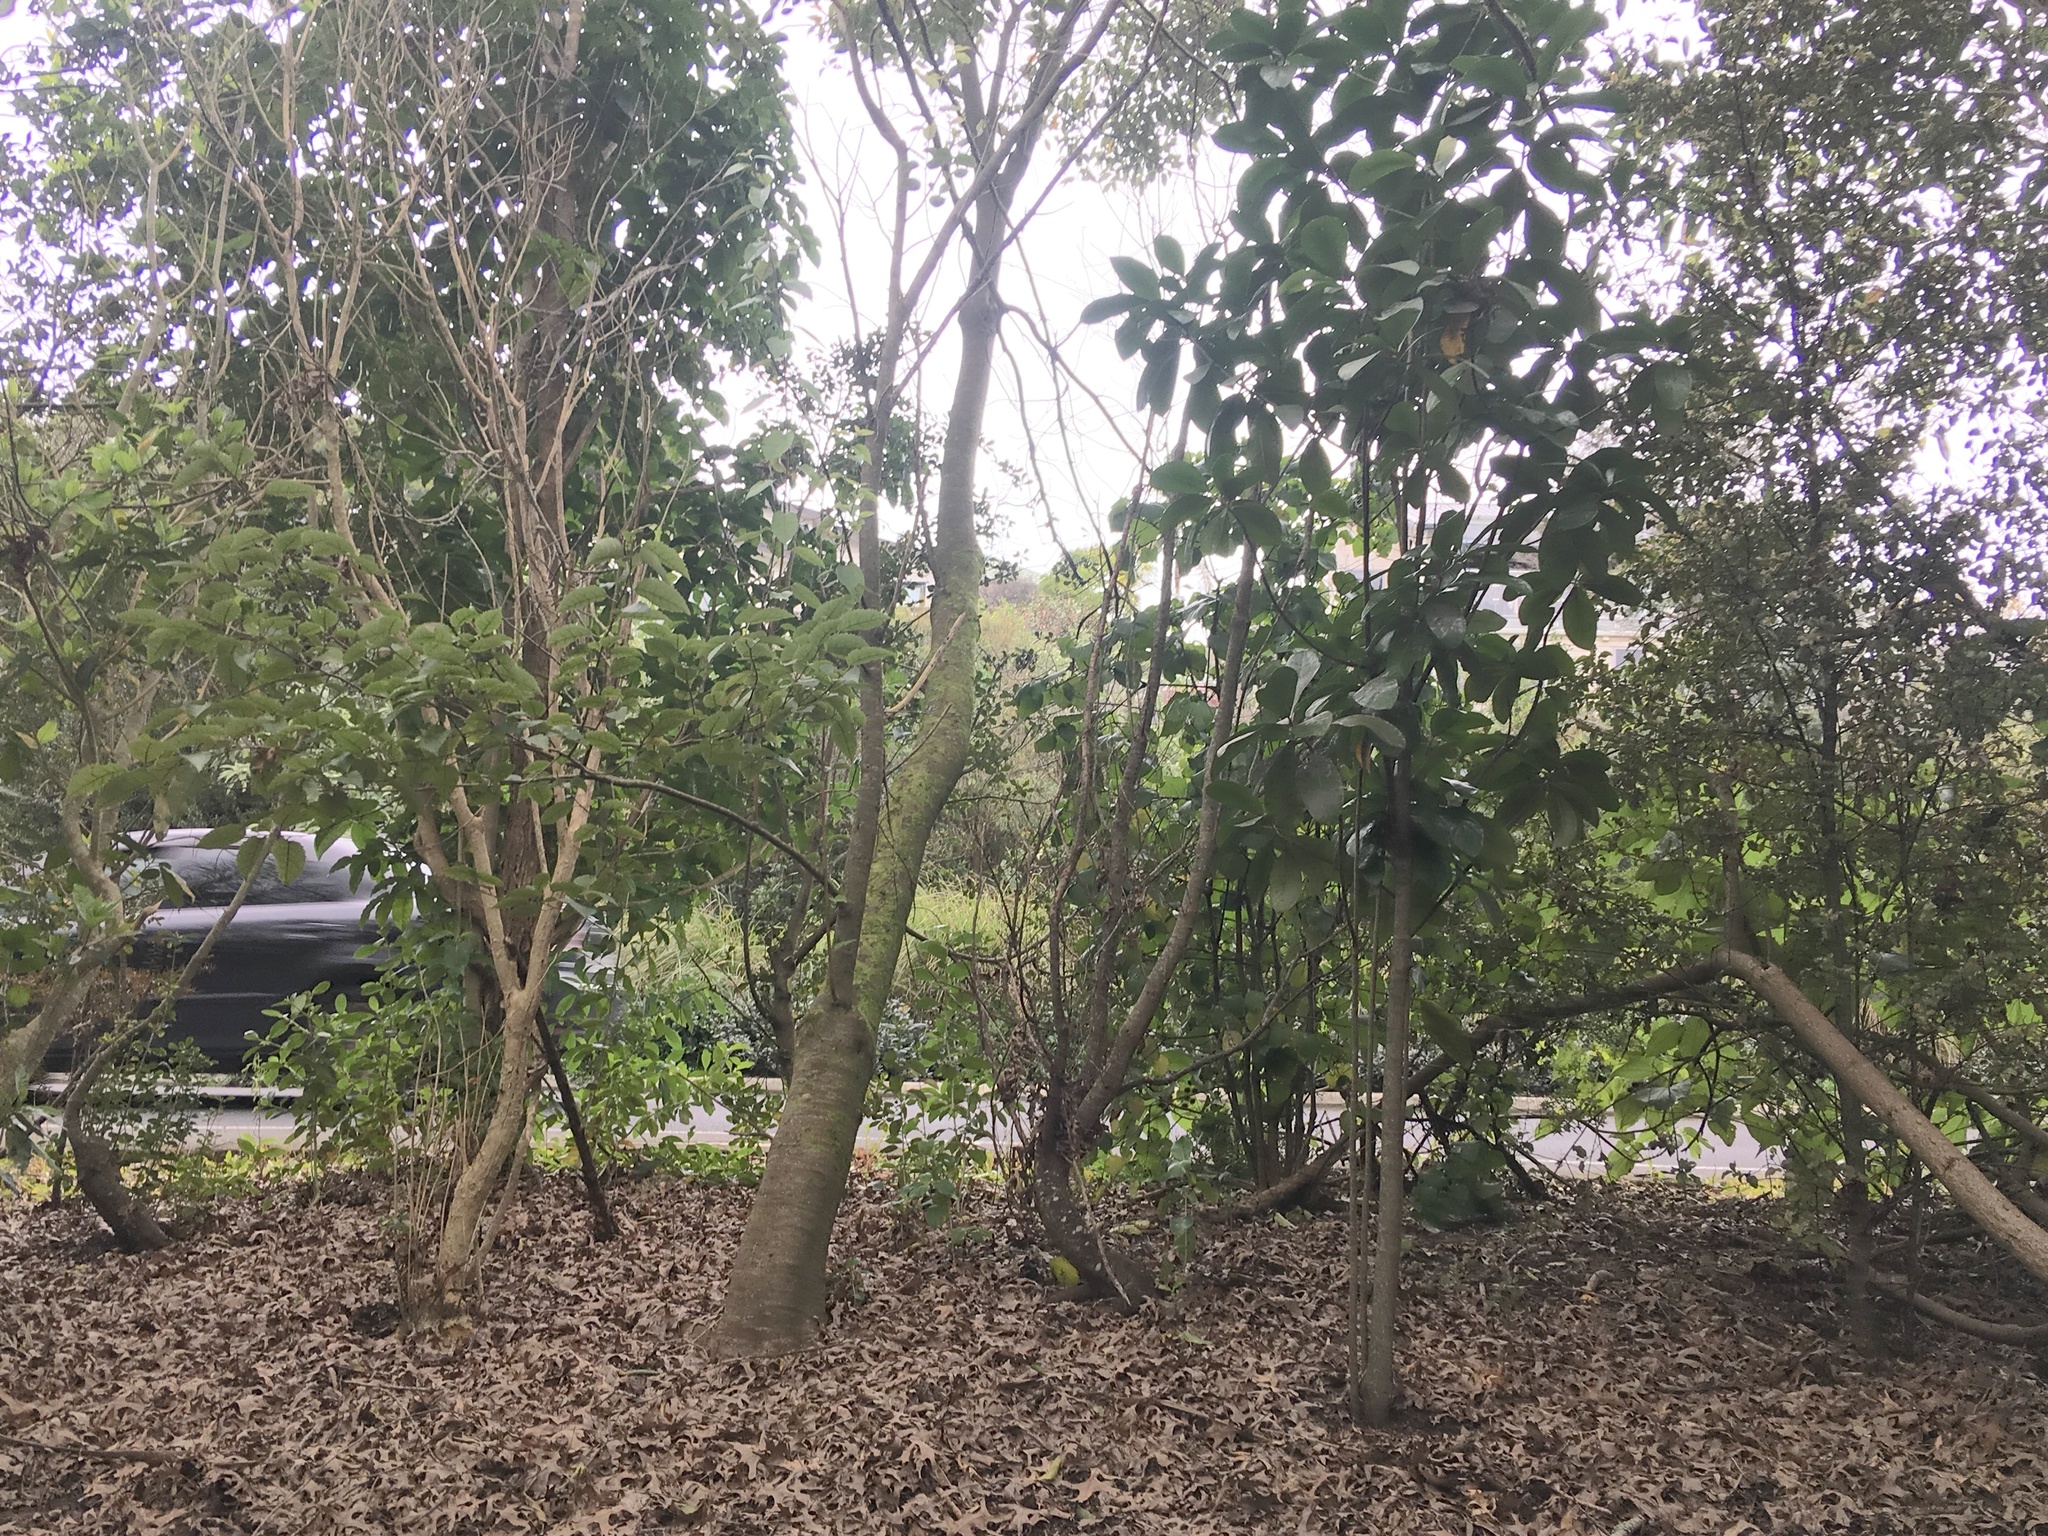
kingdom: Plantae
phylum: Tracheophyta
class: Magnoliopsida
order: Cucurbitales
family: Corynocarpaceae
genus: Corynocarpus
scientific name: Corynocarpus laevigatus
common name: New zealand laurel
